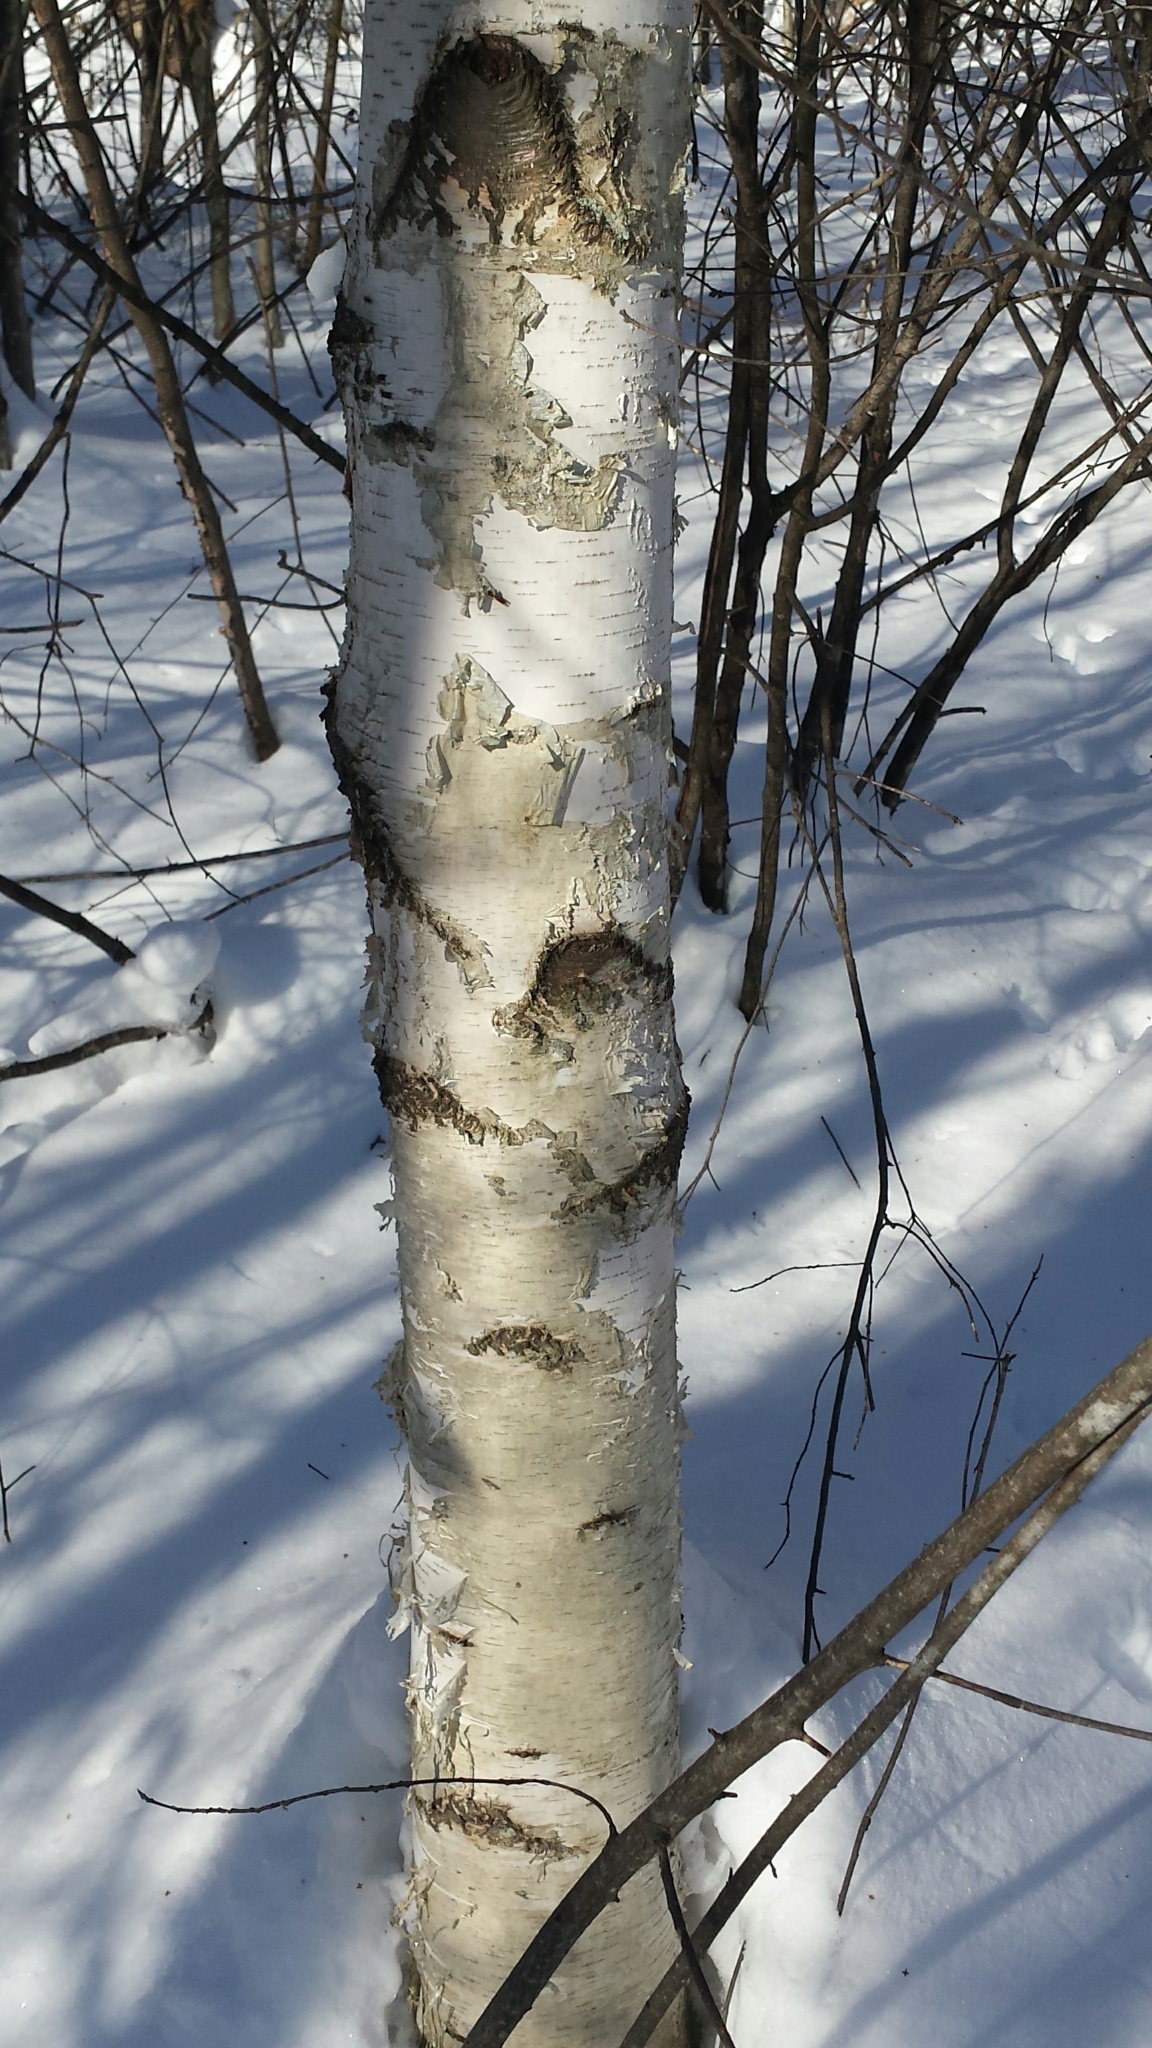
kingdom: Plantae
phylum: Tracheophyta
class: Magnoliopsida
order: Fagales
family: Betulaceae
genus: Betula
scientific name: Betula papyrifera
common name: Paper birch
